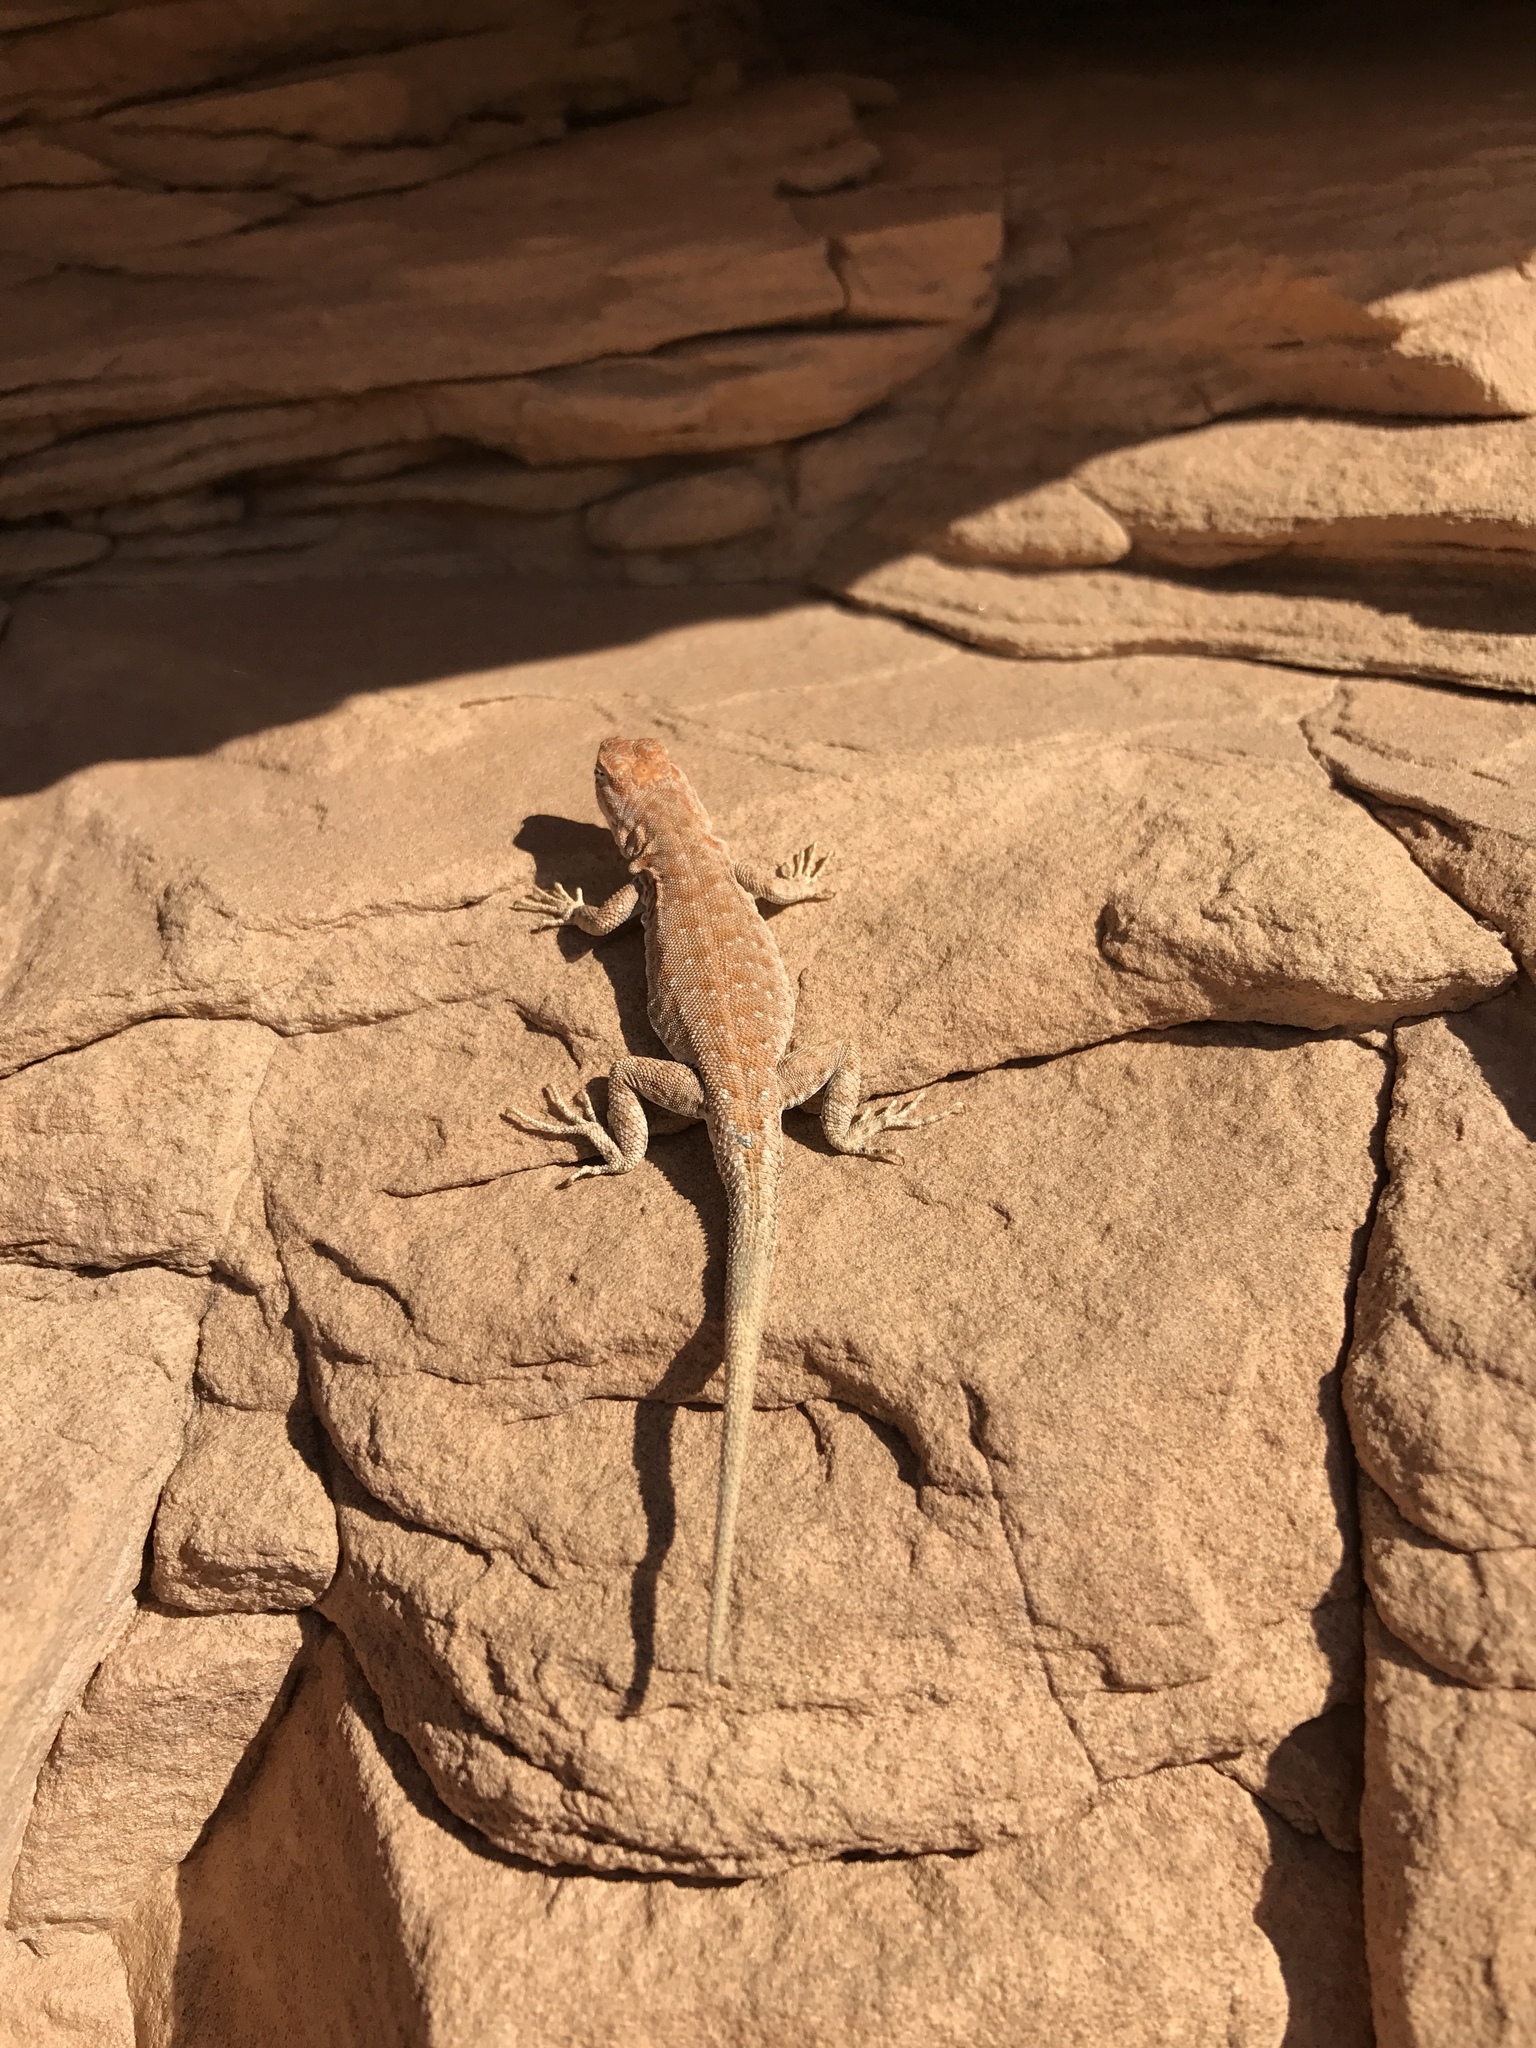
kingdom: Animalia
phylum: Chordata
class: Squamata
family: Phrynosomatidae
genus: Uta
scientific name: Uta stansburiana
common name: Side-blotched lizard
